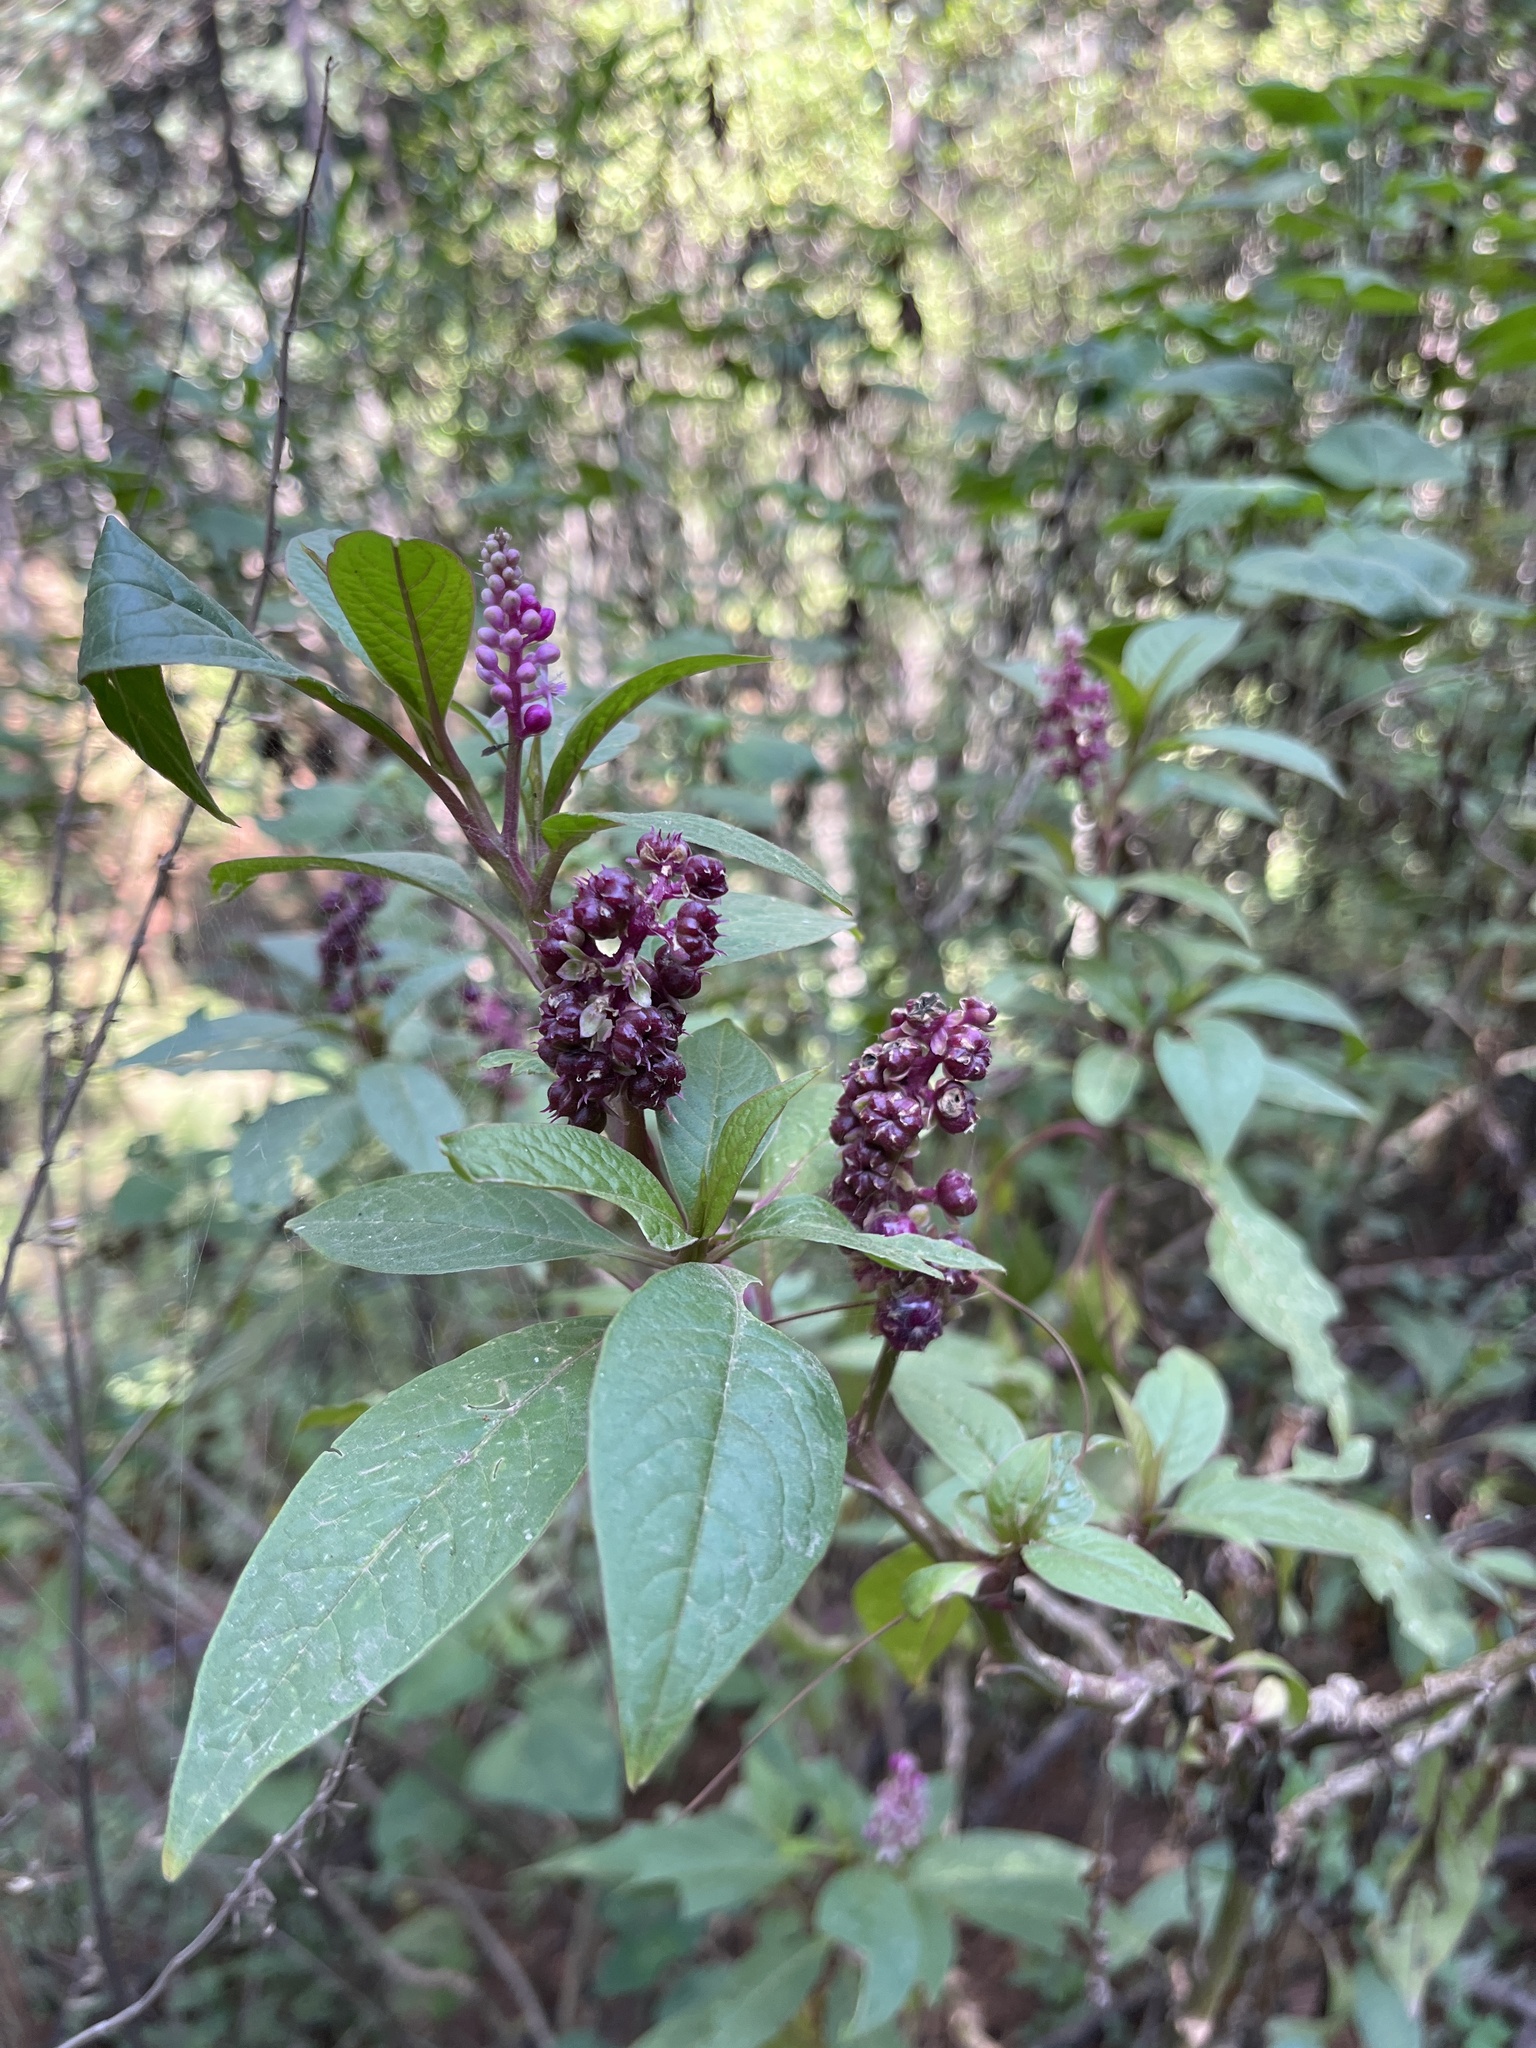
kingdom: Plantae
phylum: Tracheophyta
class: Magnoliopsida
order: Caryophyllales
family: Phytolaccaceae
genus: Phytolacca
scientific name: Phytolacca rugosa
